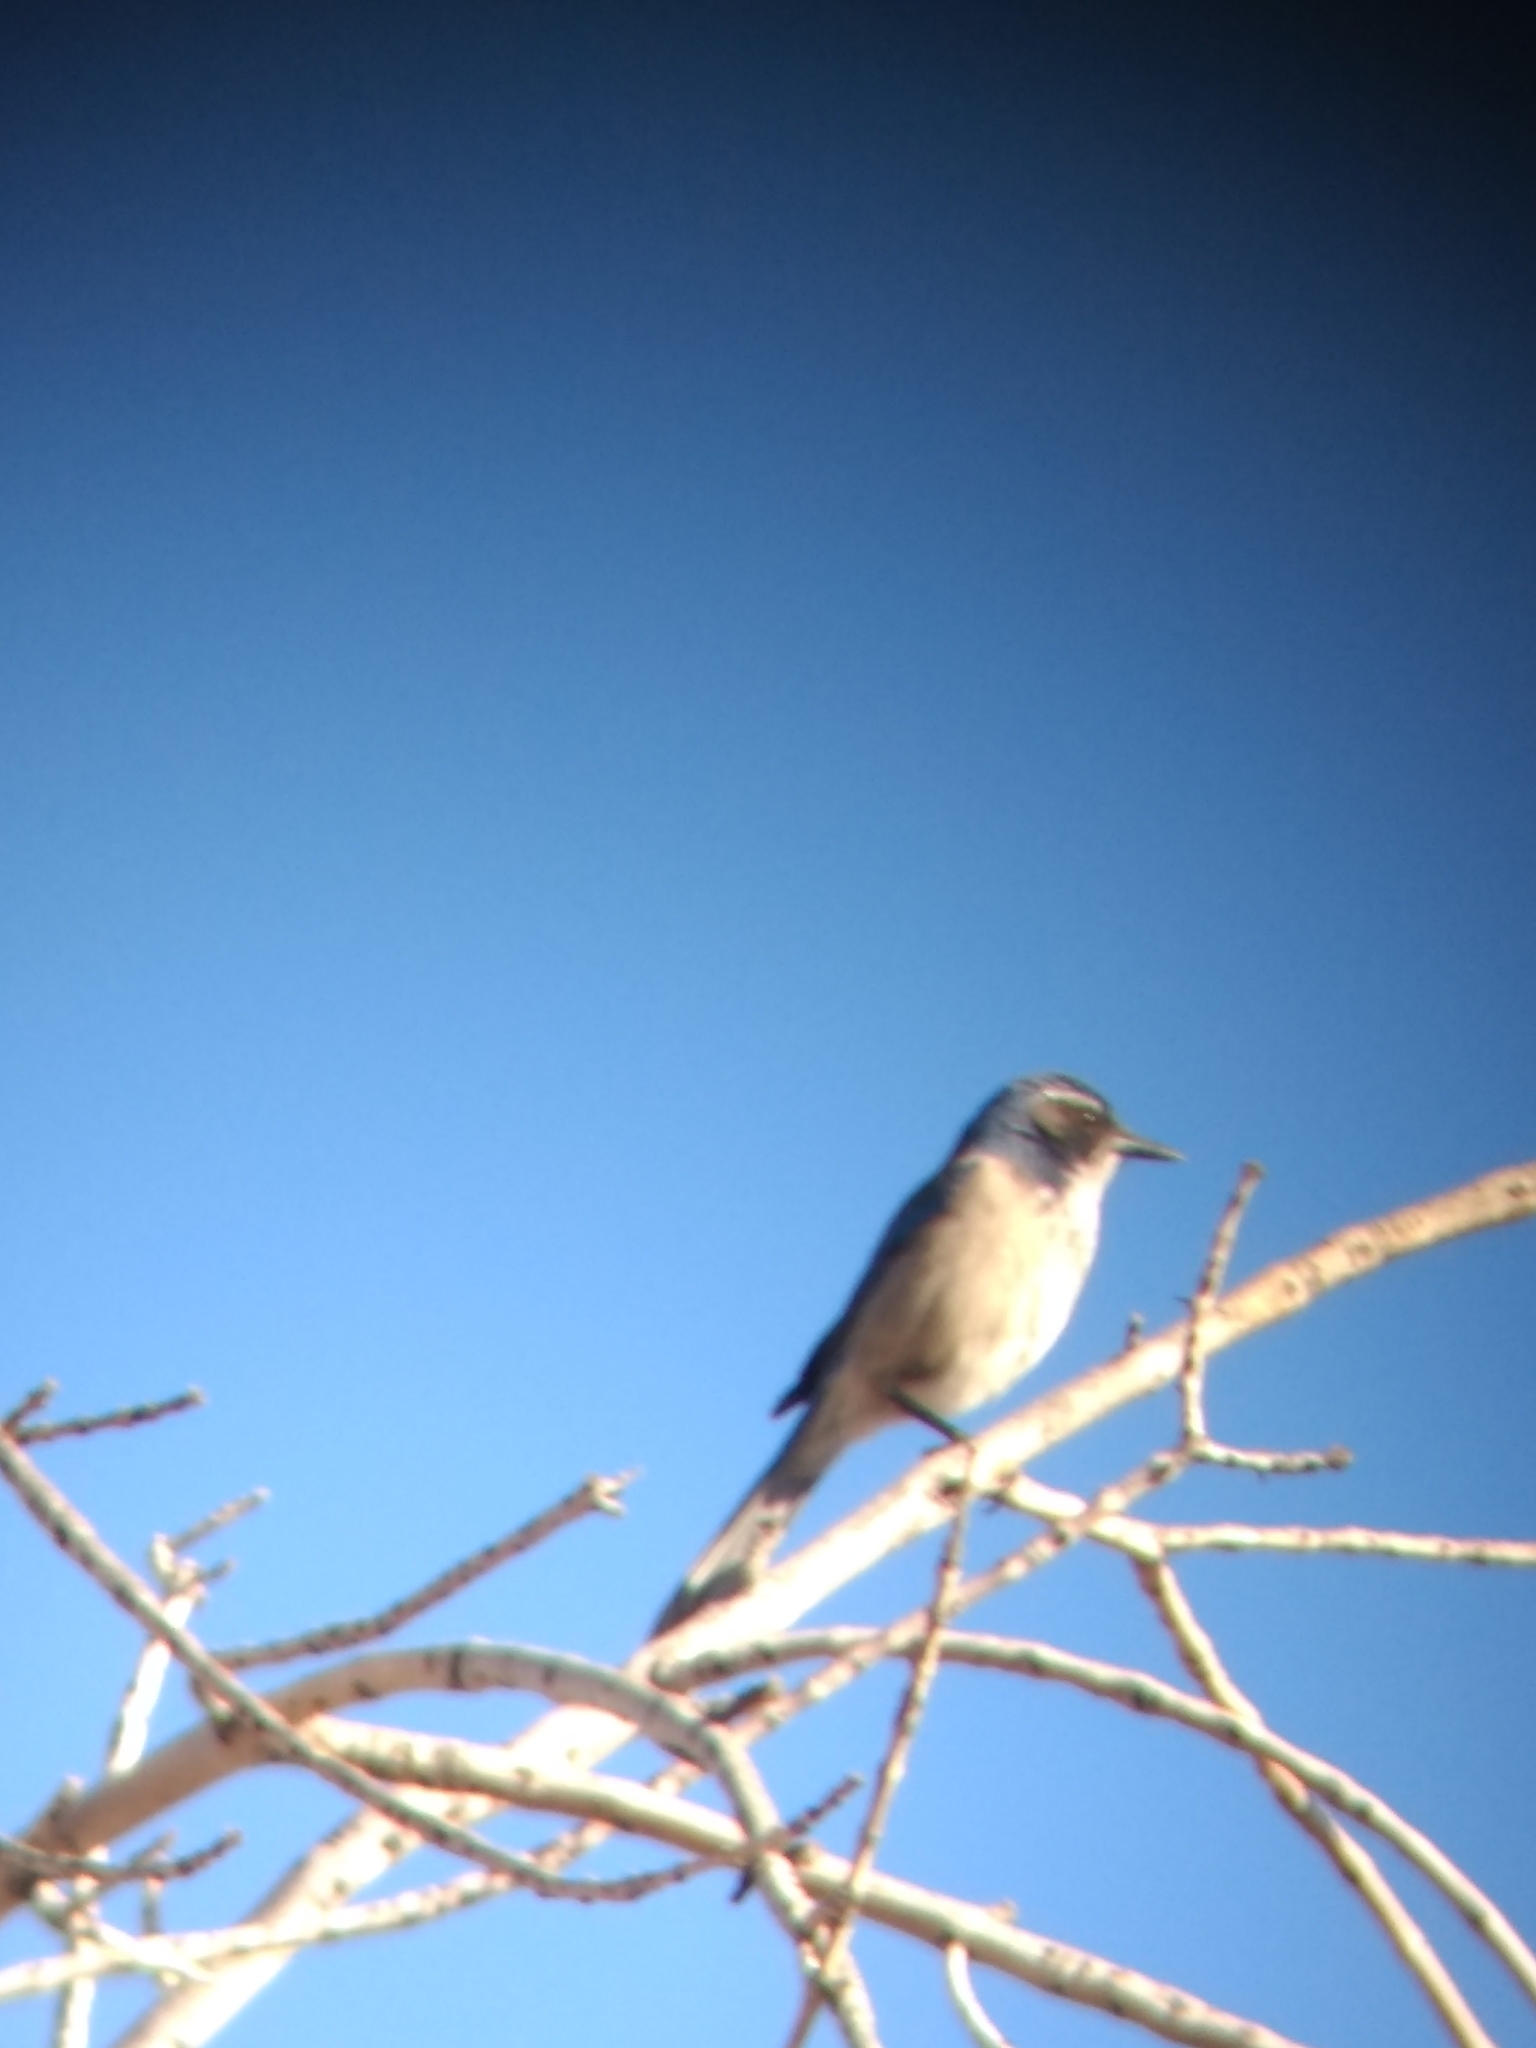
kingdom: Animalia
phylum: Chordata
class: Aves
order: Passeriformes
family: Corvidae
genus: Aphelocoma
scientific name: Aphelocoma californica
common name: California scrub-jay
